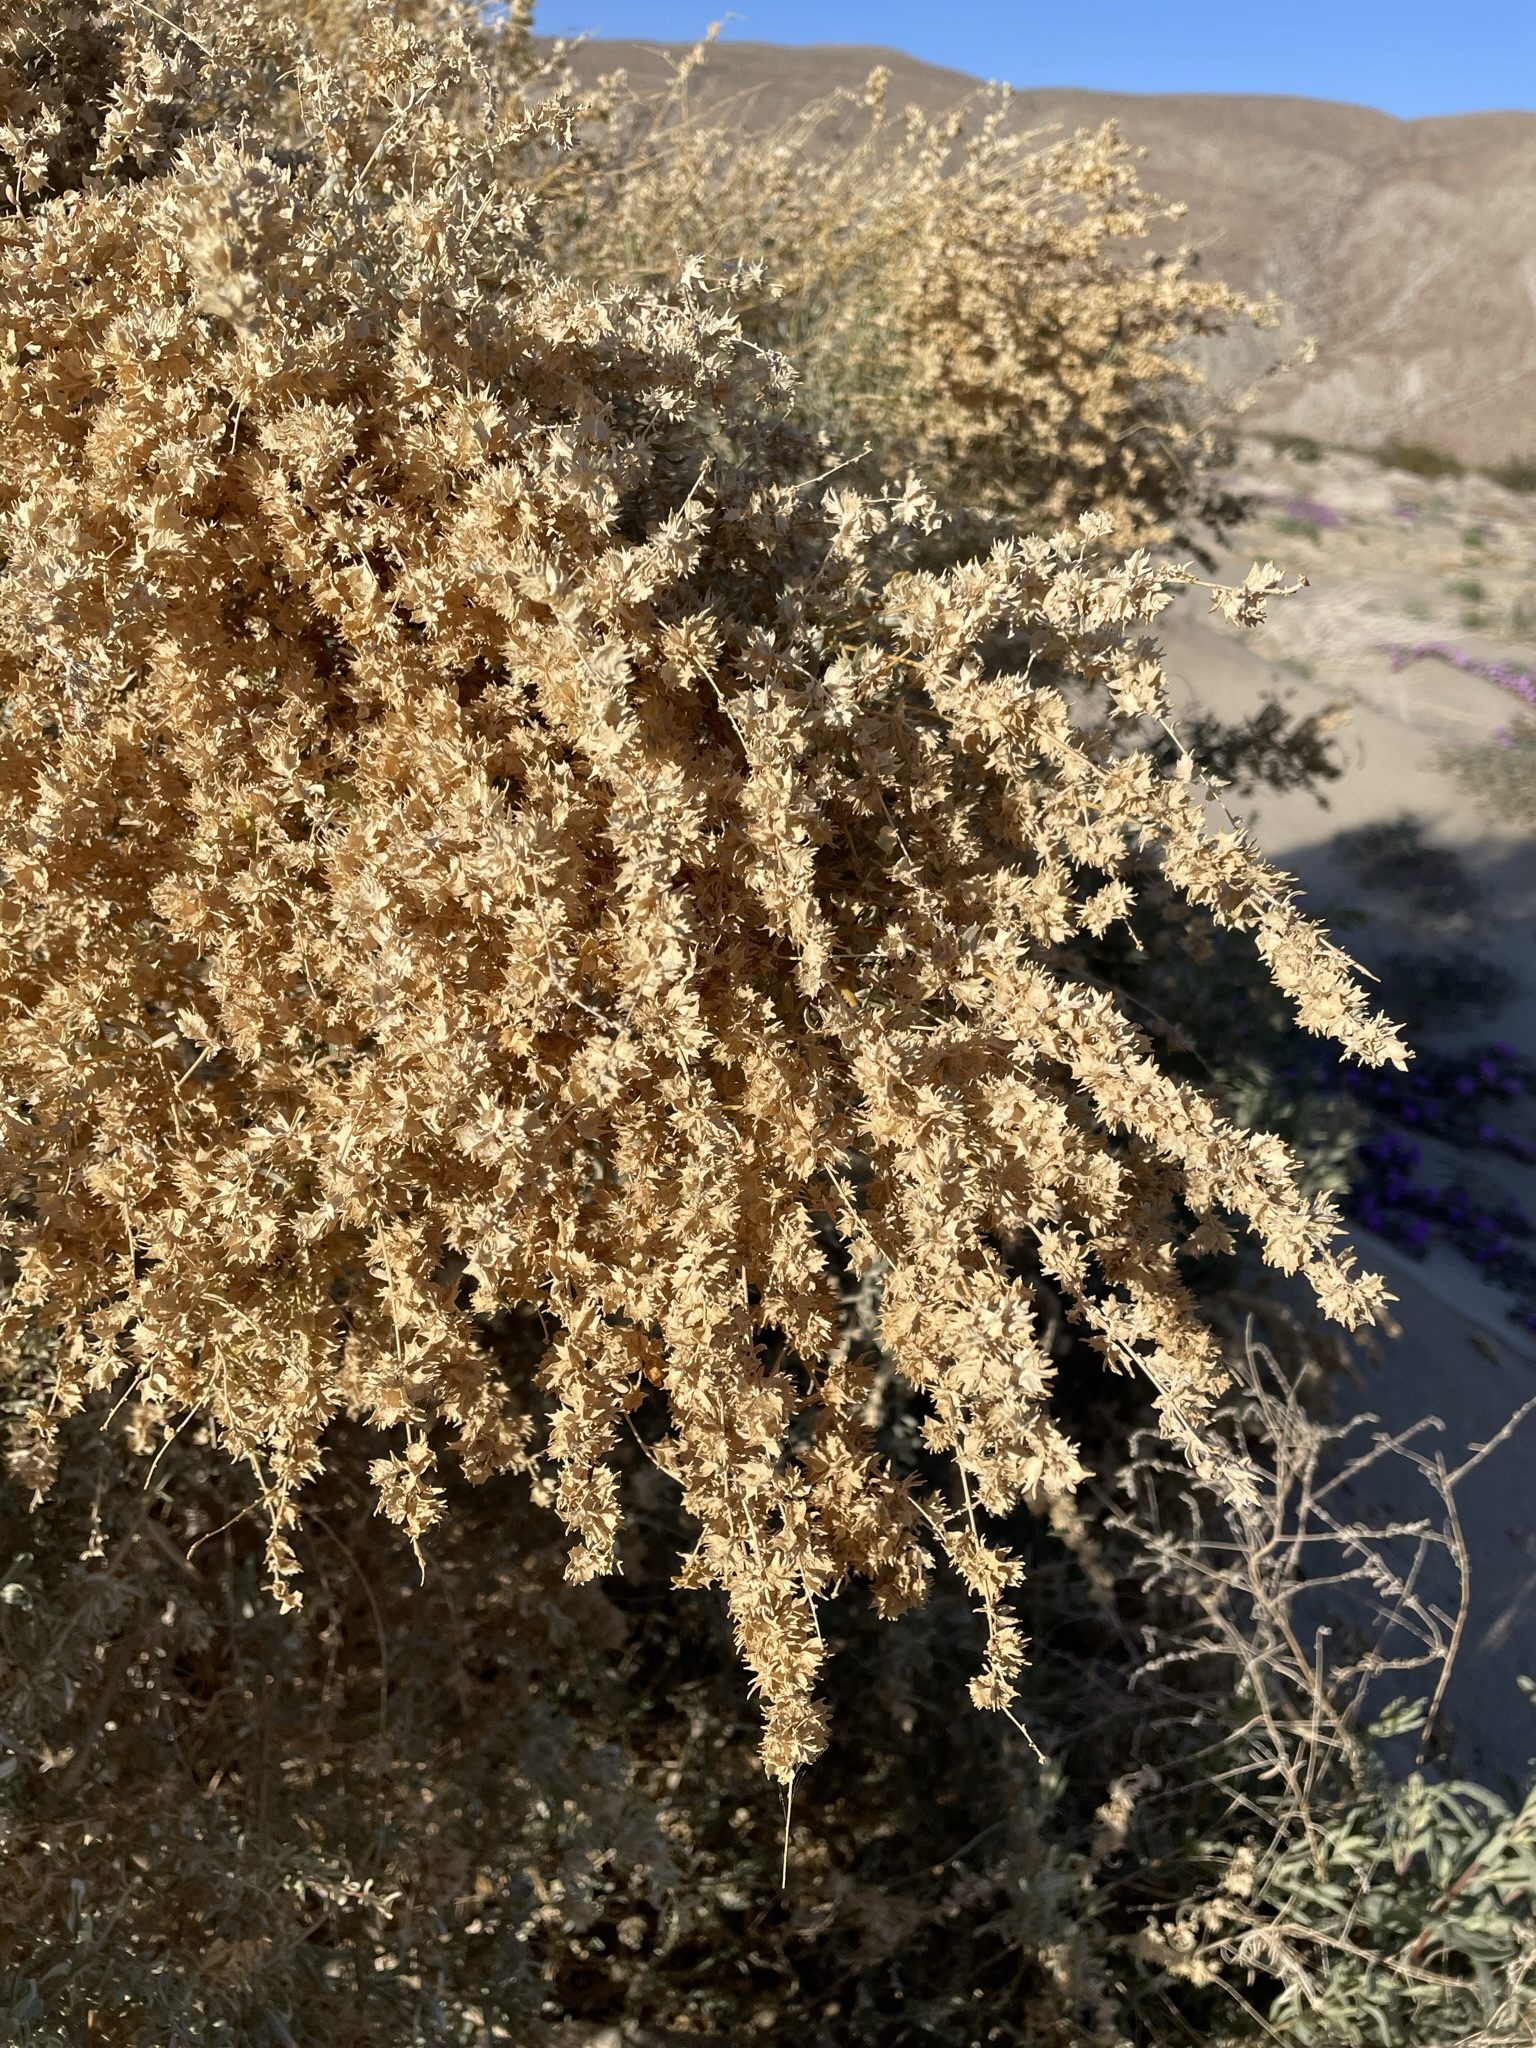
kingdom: Plantae
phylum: Tracheophyta
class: Magnoliopsida
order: Caryophyllales
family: Amaranthaceae
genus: Atriplex
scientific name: Atriplex canescens
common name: Four-wing saltbush
